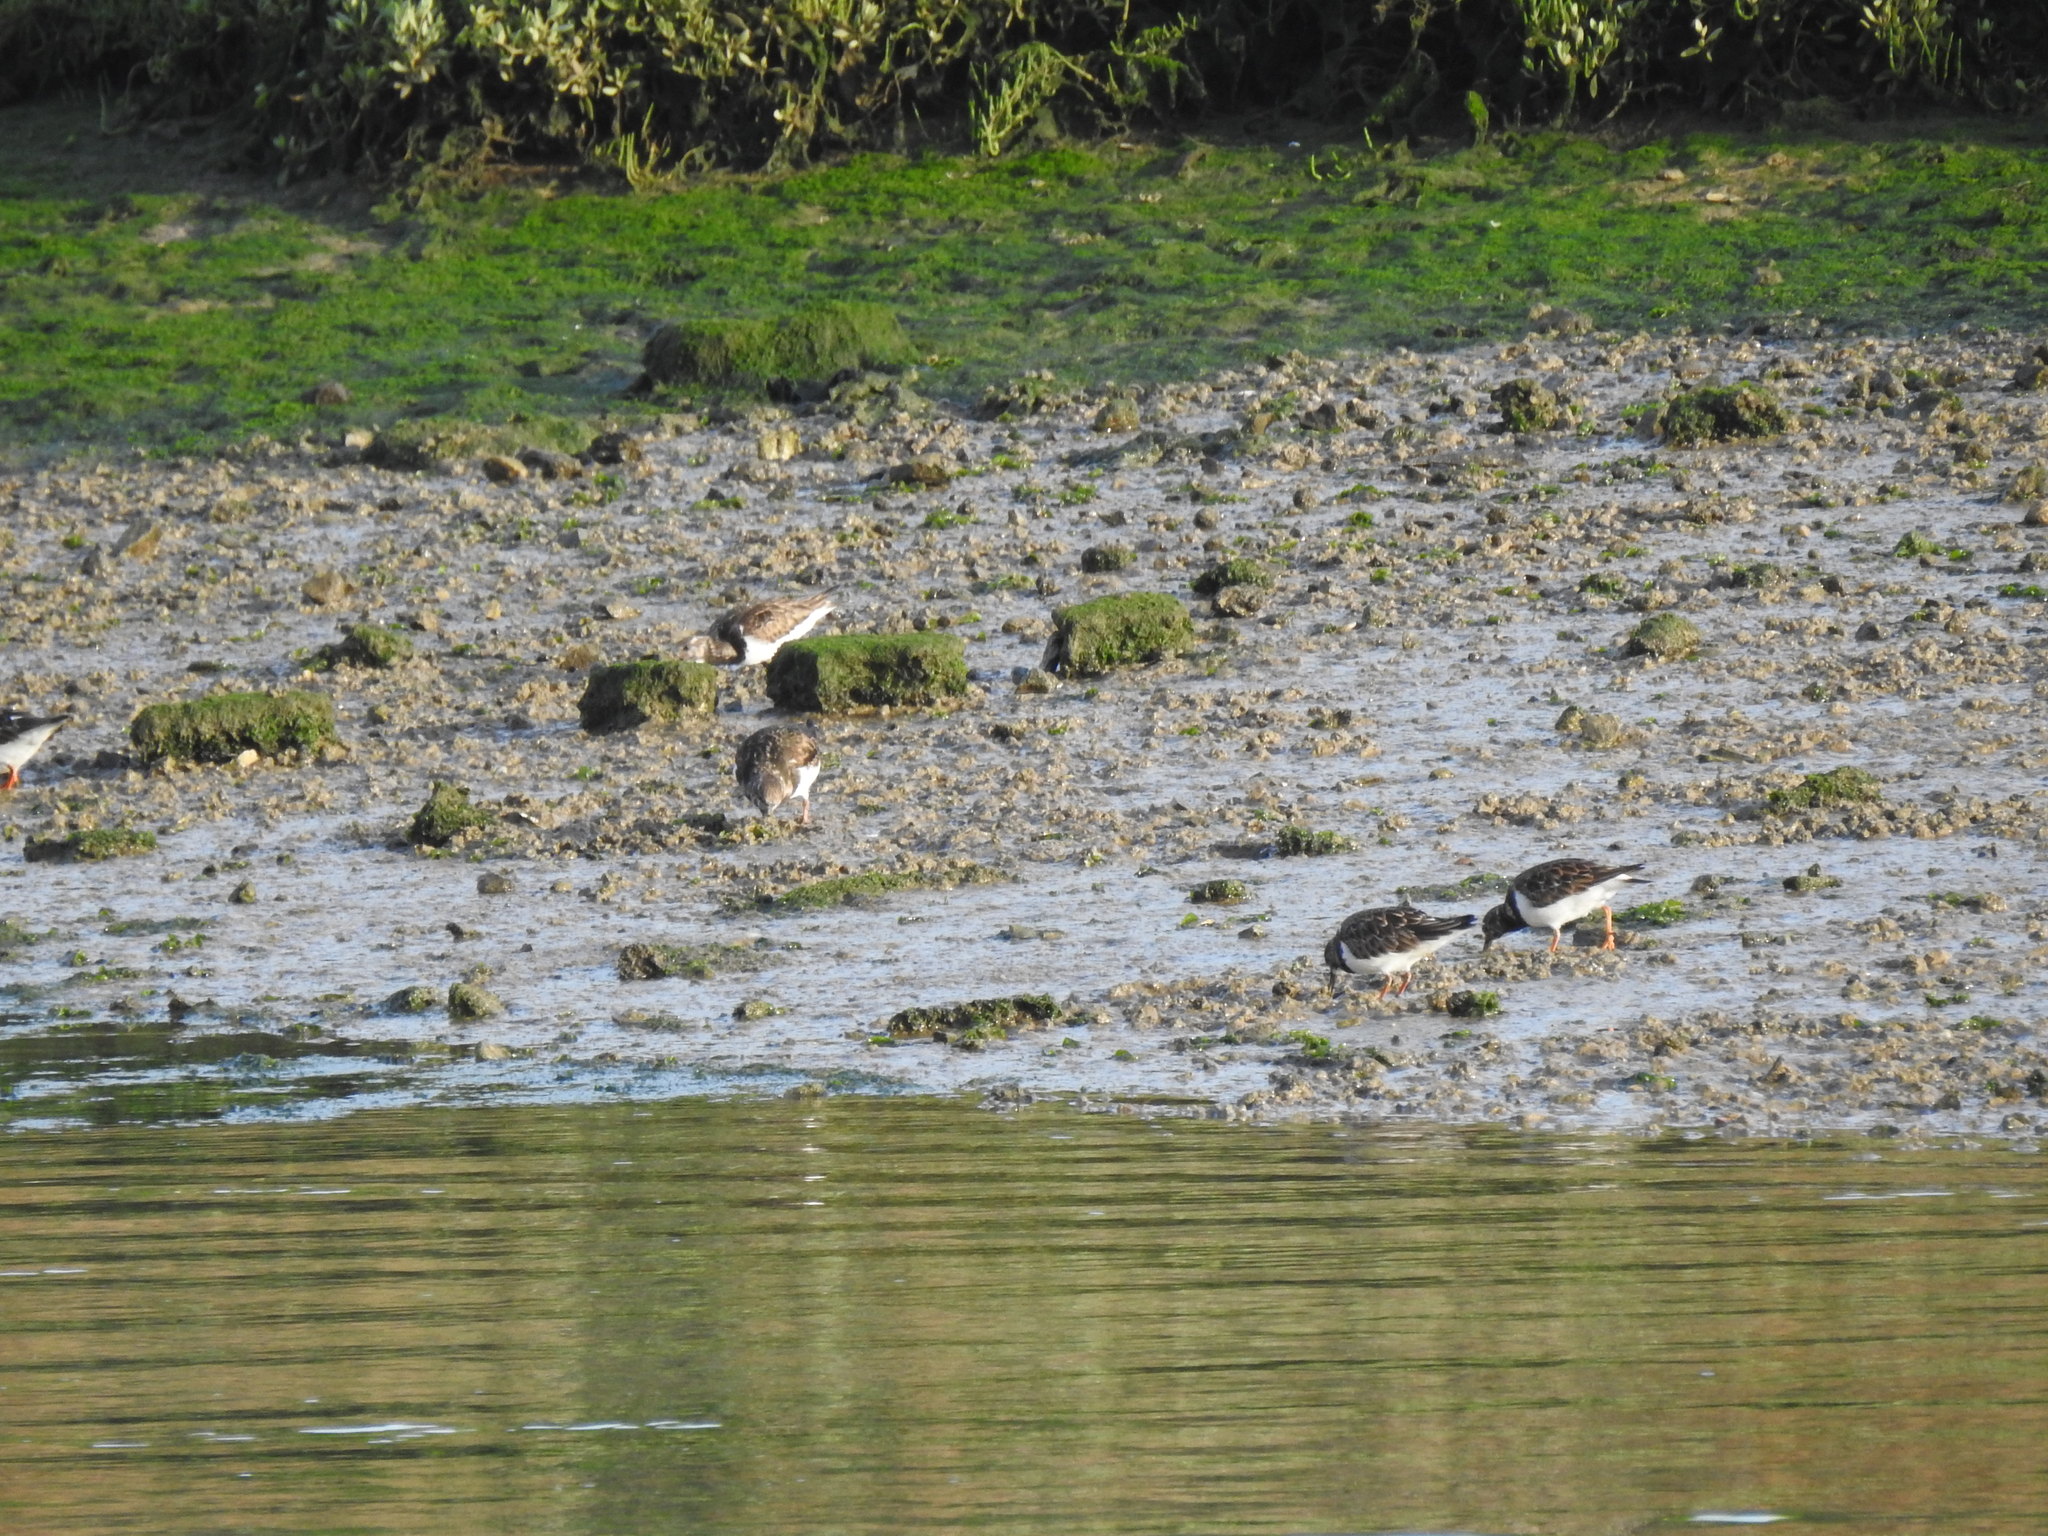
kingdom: Animalia
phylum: Chordata
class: Aves
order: Charadriiformes
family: Scolopacidae
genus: Arenaria
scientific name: Arenaria interpres
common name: Ruddy turnstone
